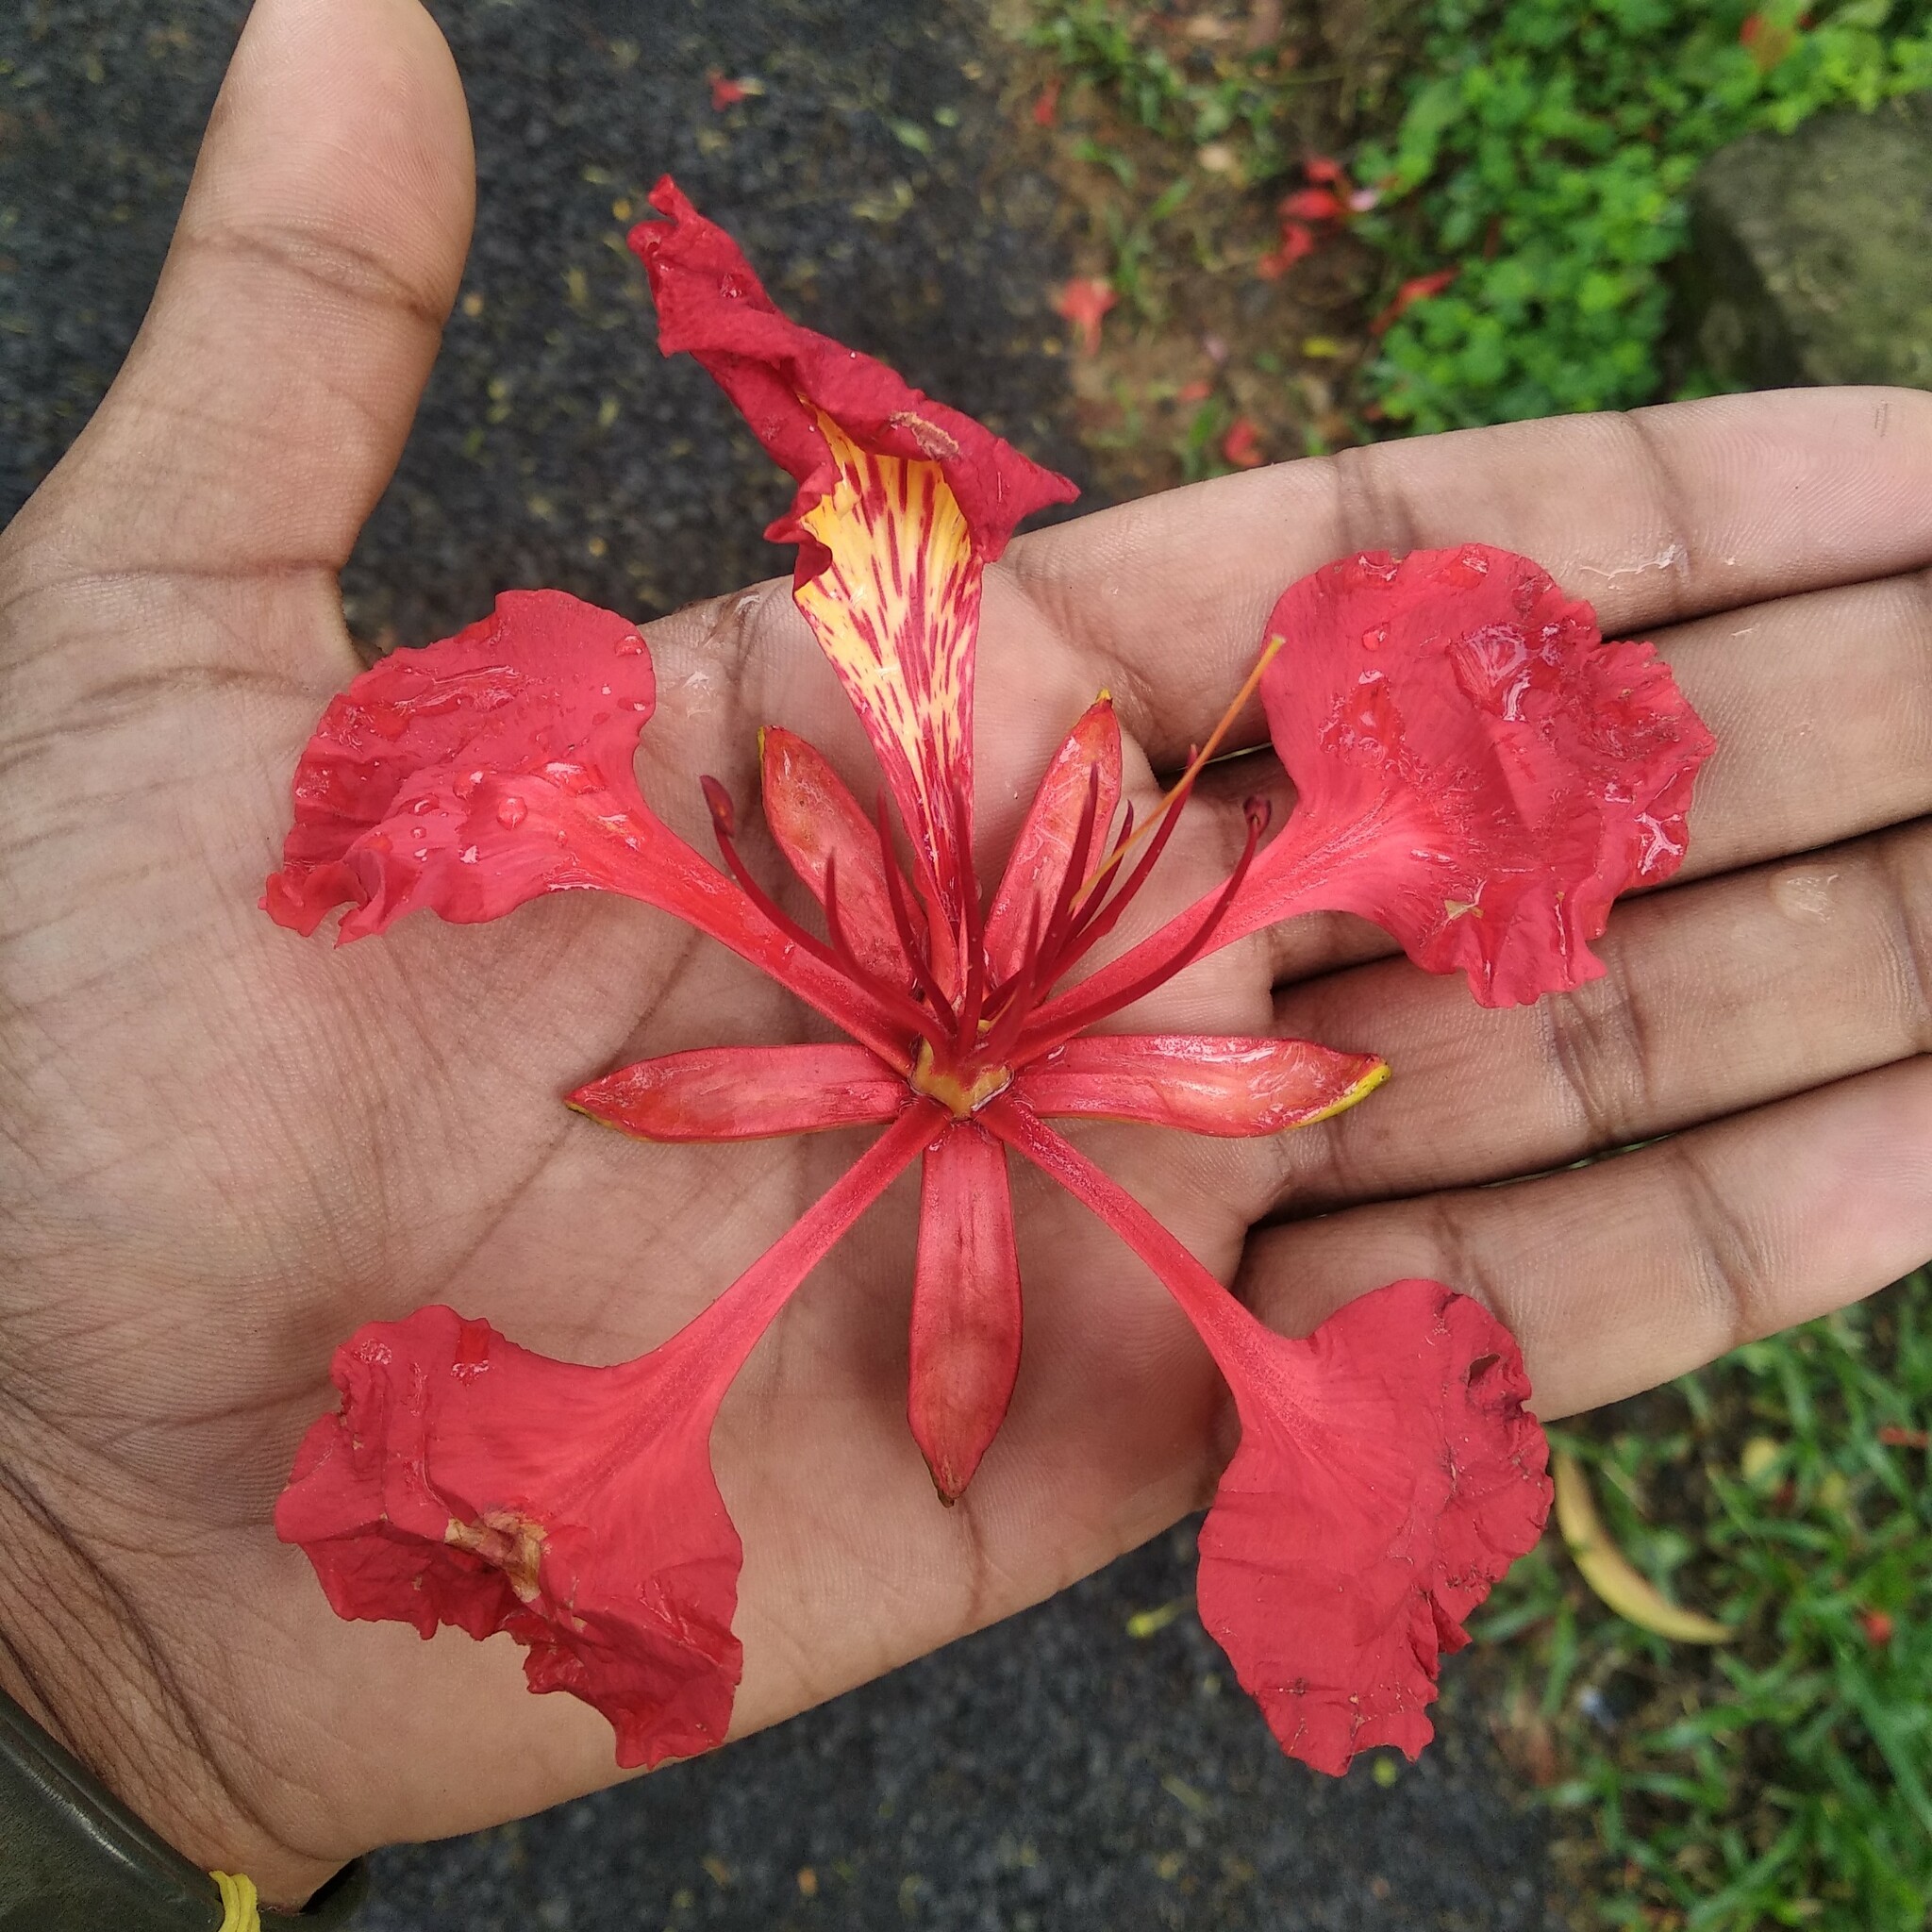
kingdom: Plantae
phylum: Tracheophyta
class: Magnoliopsida
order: Fabales
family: Fabaceae
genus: Delonix
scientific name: Delonix regia
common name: Royal poinciana
